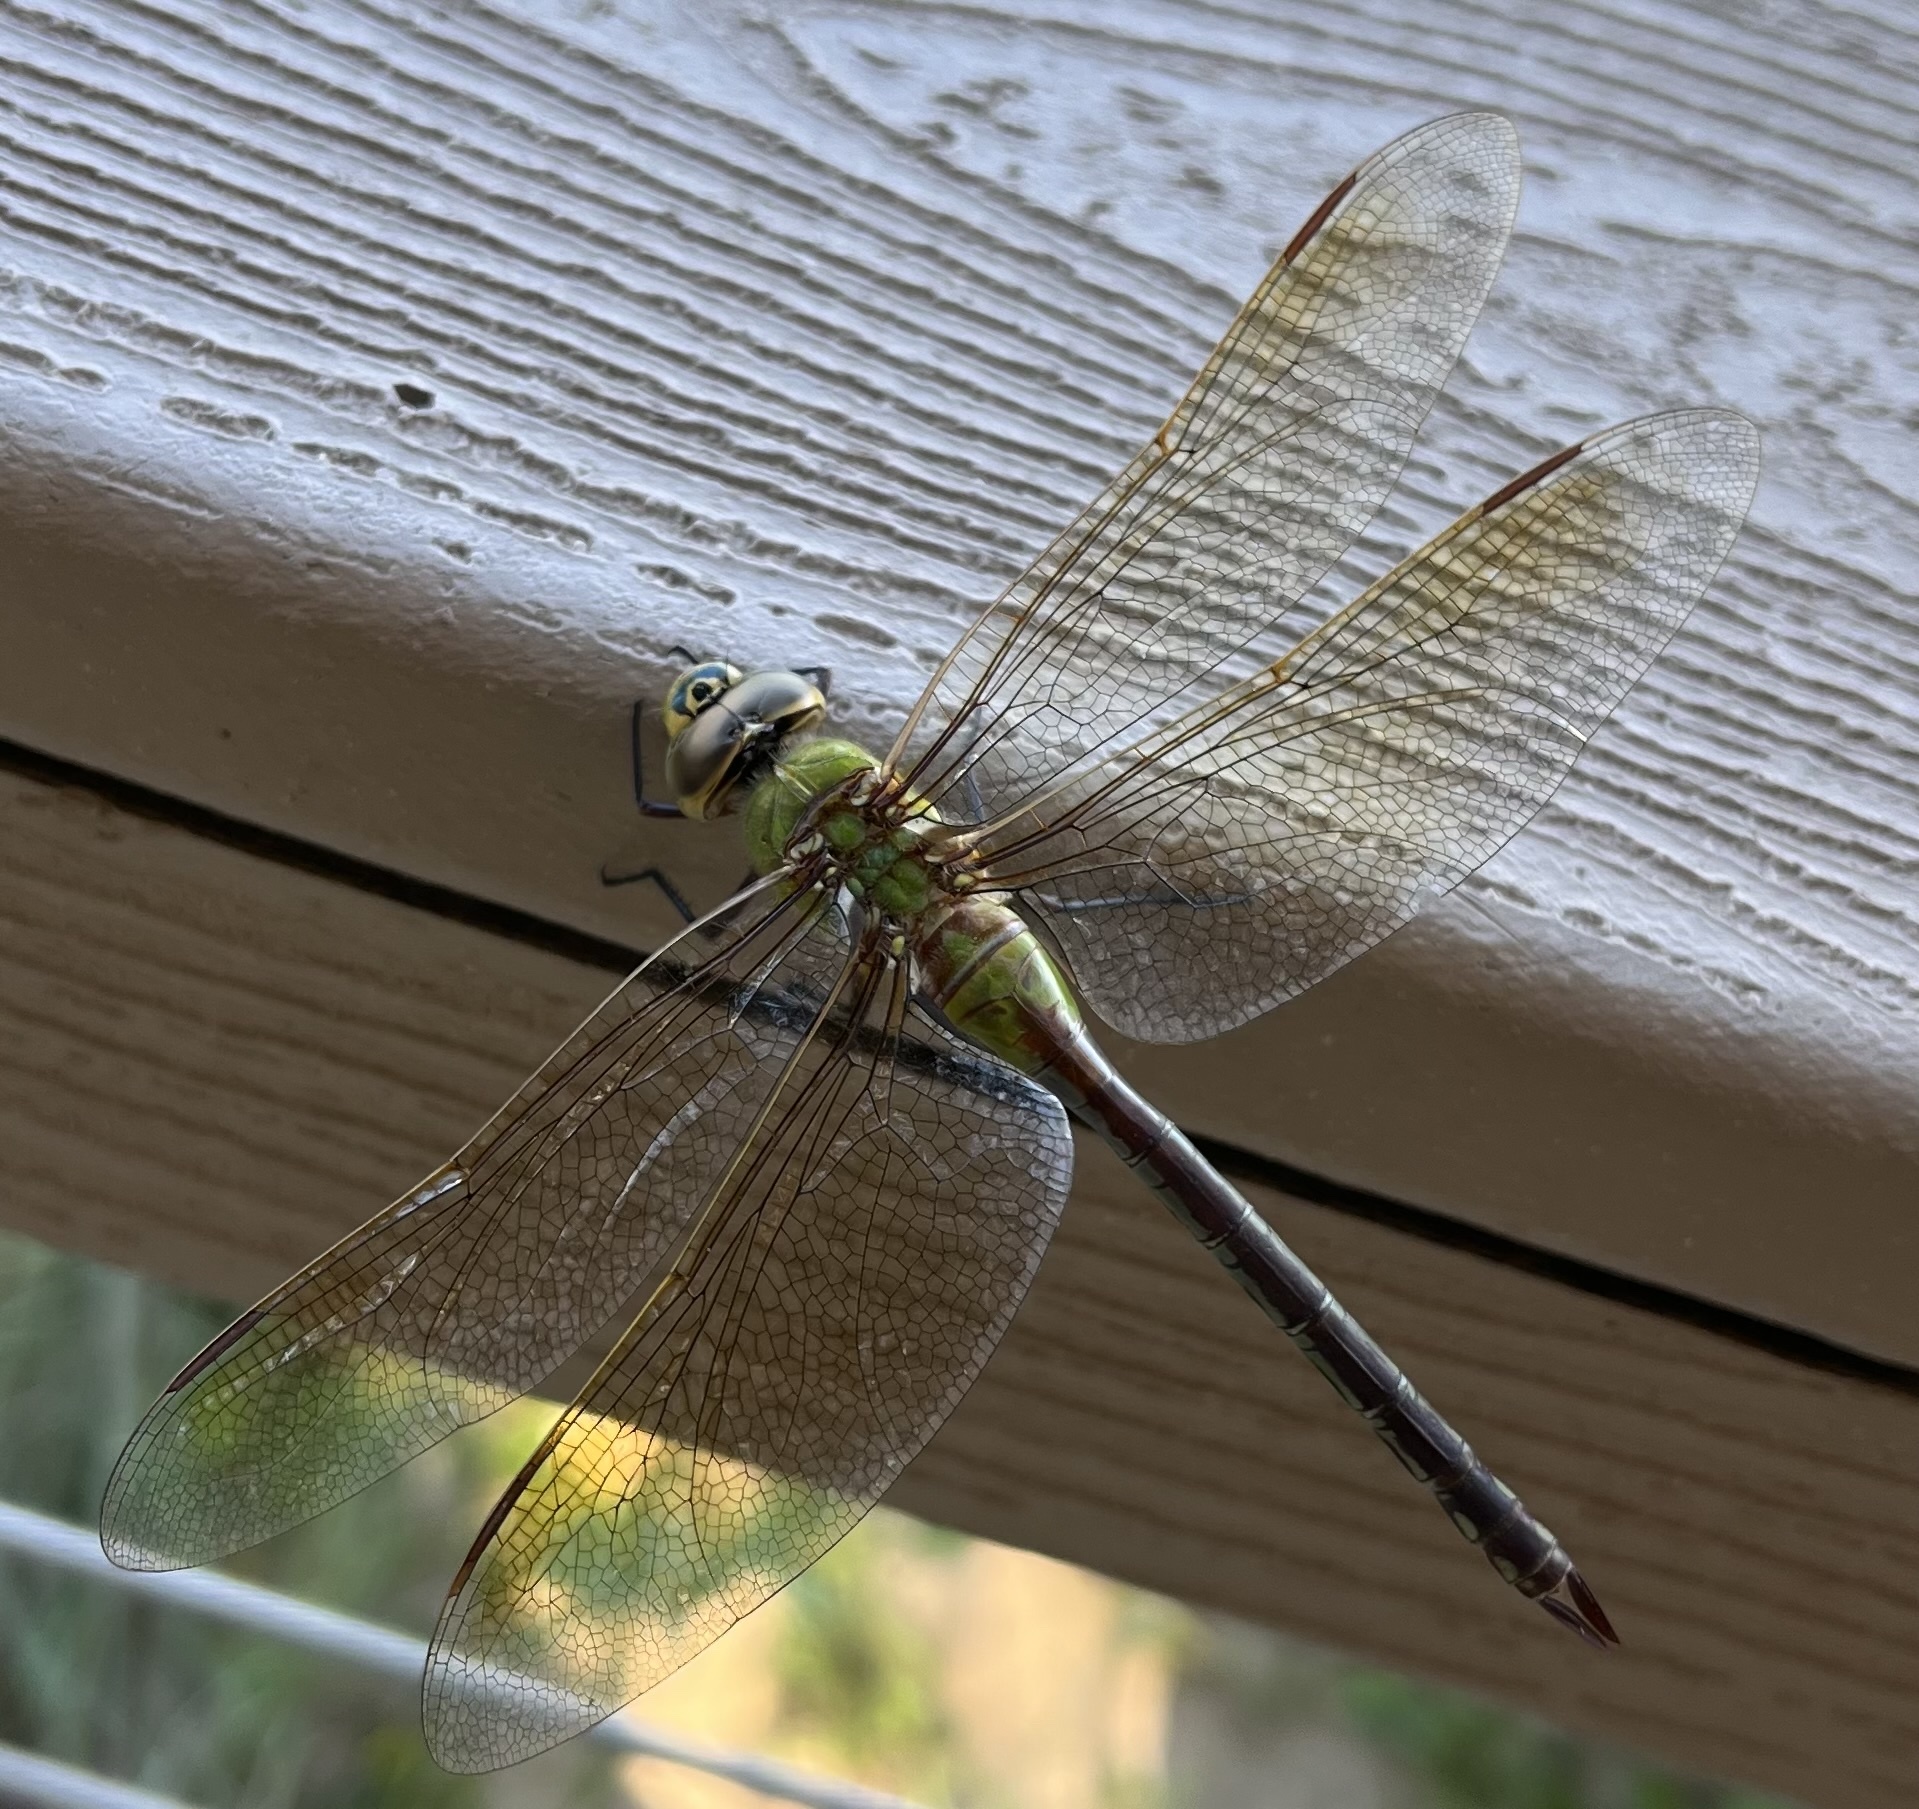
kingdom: Animalia
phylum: Arthropoda
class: Insecta
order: Odonata
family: Aeshnidae
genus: Anax
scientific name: Anax junius
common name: Common green darner
